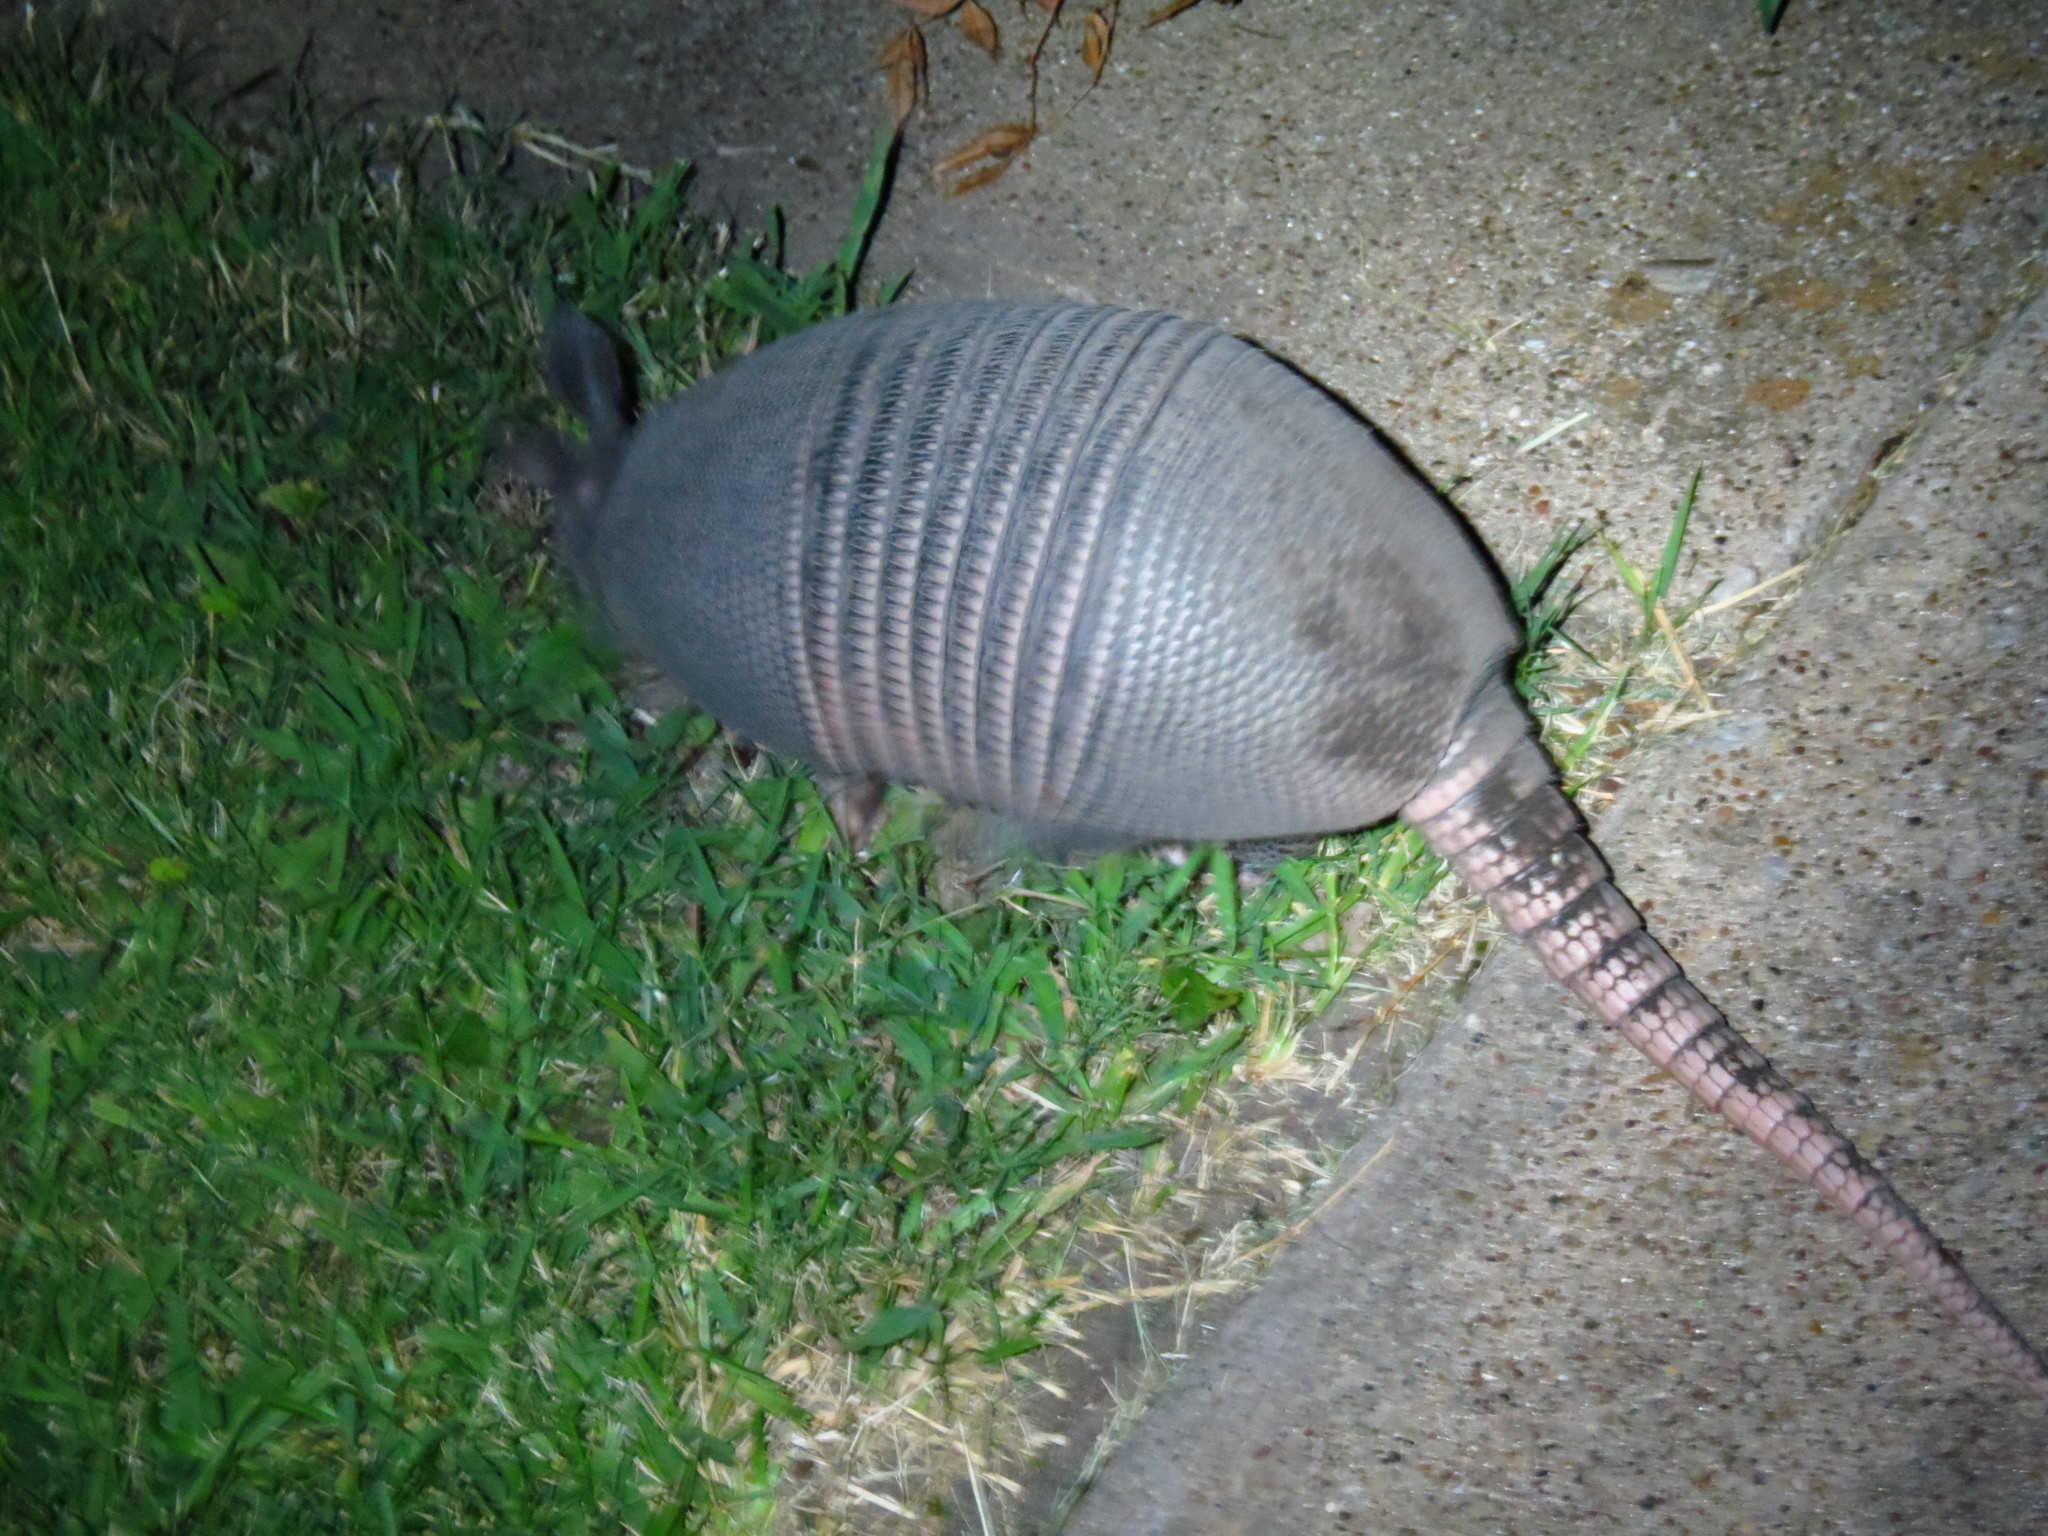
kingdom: Animalia
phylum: Chordata
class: Mammalia
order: Cingulata
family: Dasypodidae
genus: Dasypus
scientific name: Dasypus novemcinctus
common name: Nine-banded armadillo
